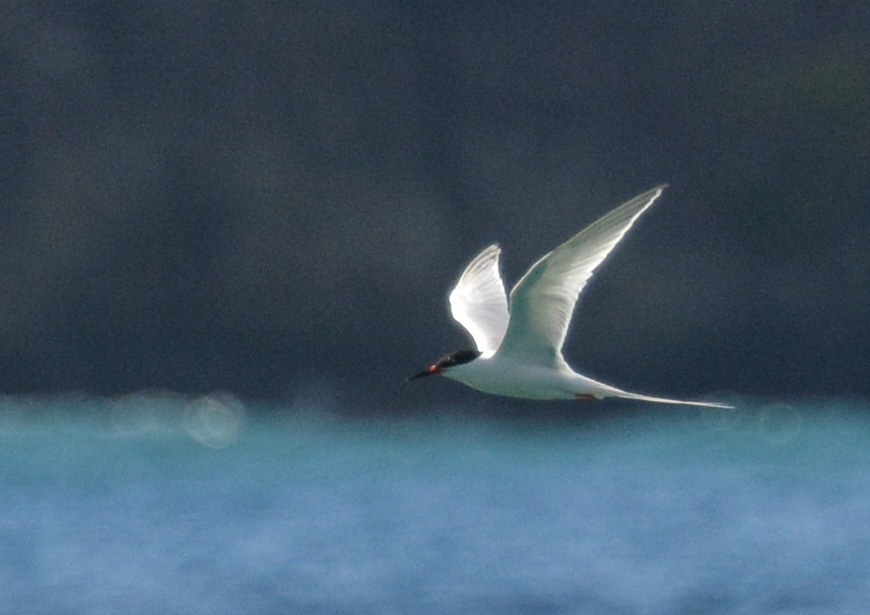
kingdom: Animalia
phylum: Chordata
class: Aves
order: Charadriiformes
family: Laridae
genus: Sterna
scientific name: Sterna dougallii
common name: Roseate tern
